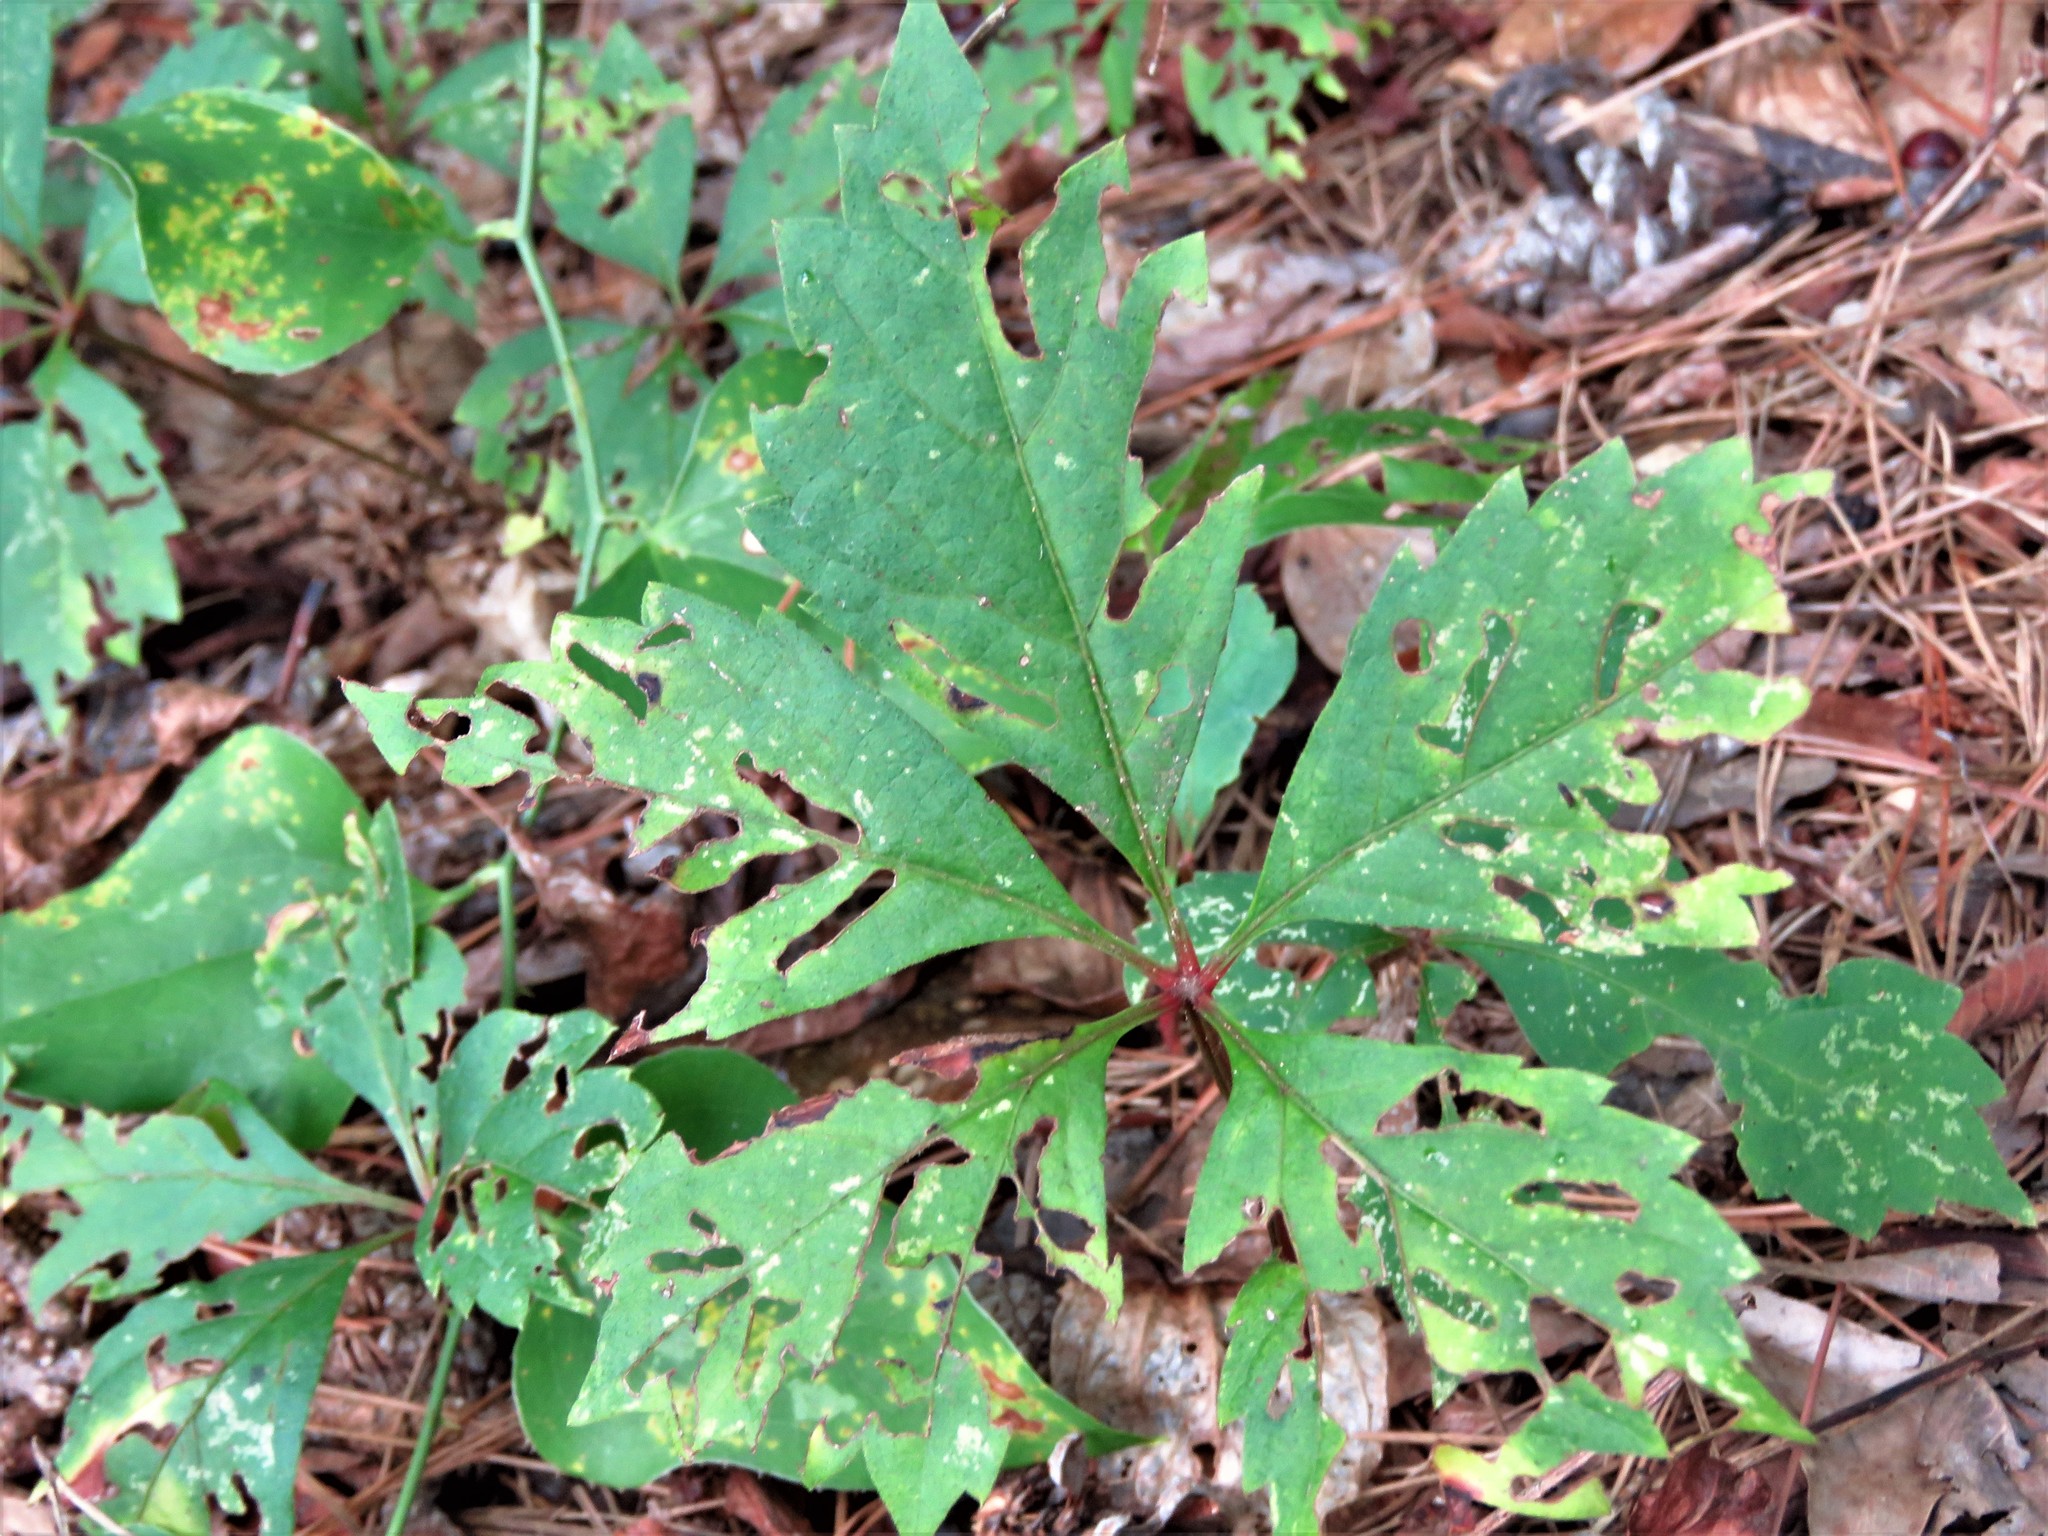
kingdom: Plantae
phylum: Tracheophyta
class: Magnoliopsida
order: Vitales
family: Vitaceae
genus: Parthenocissus
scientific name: Parthenocissus quinquefolia
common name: Virginia-creeper
